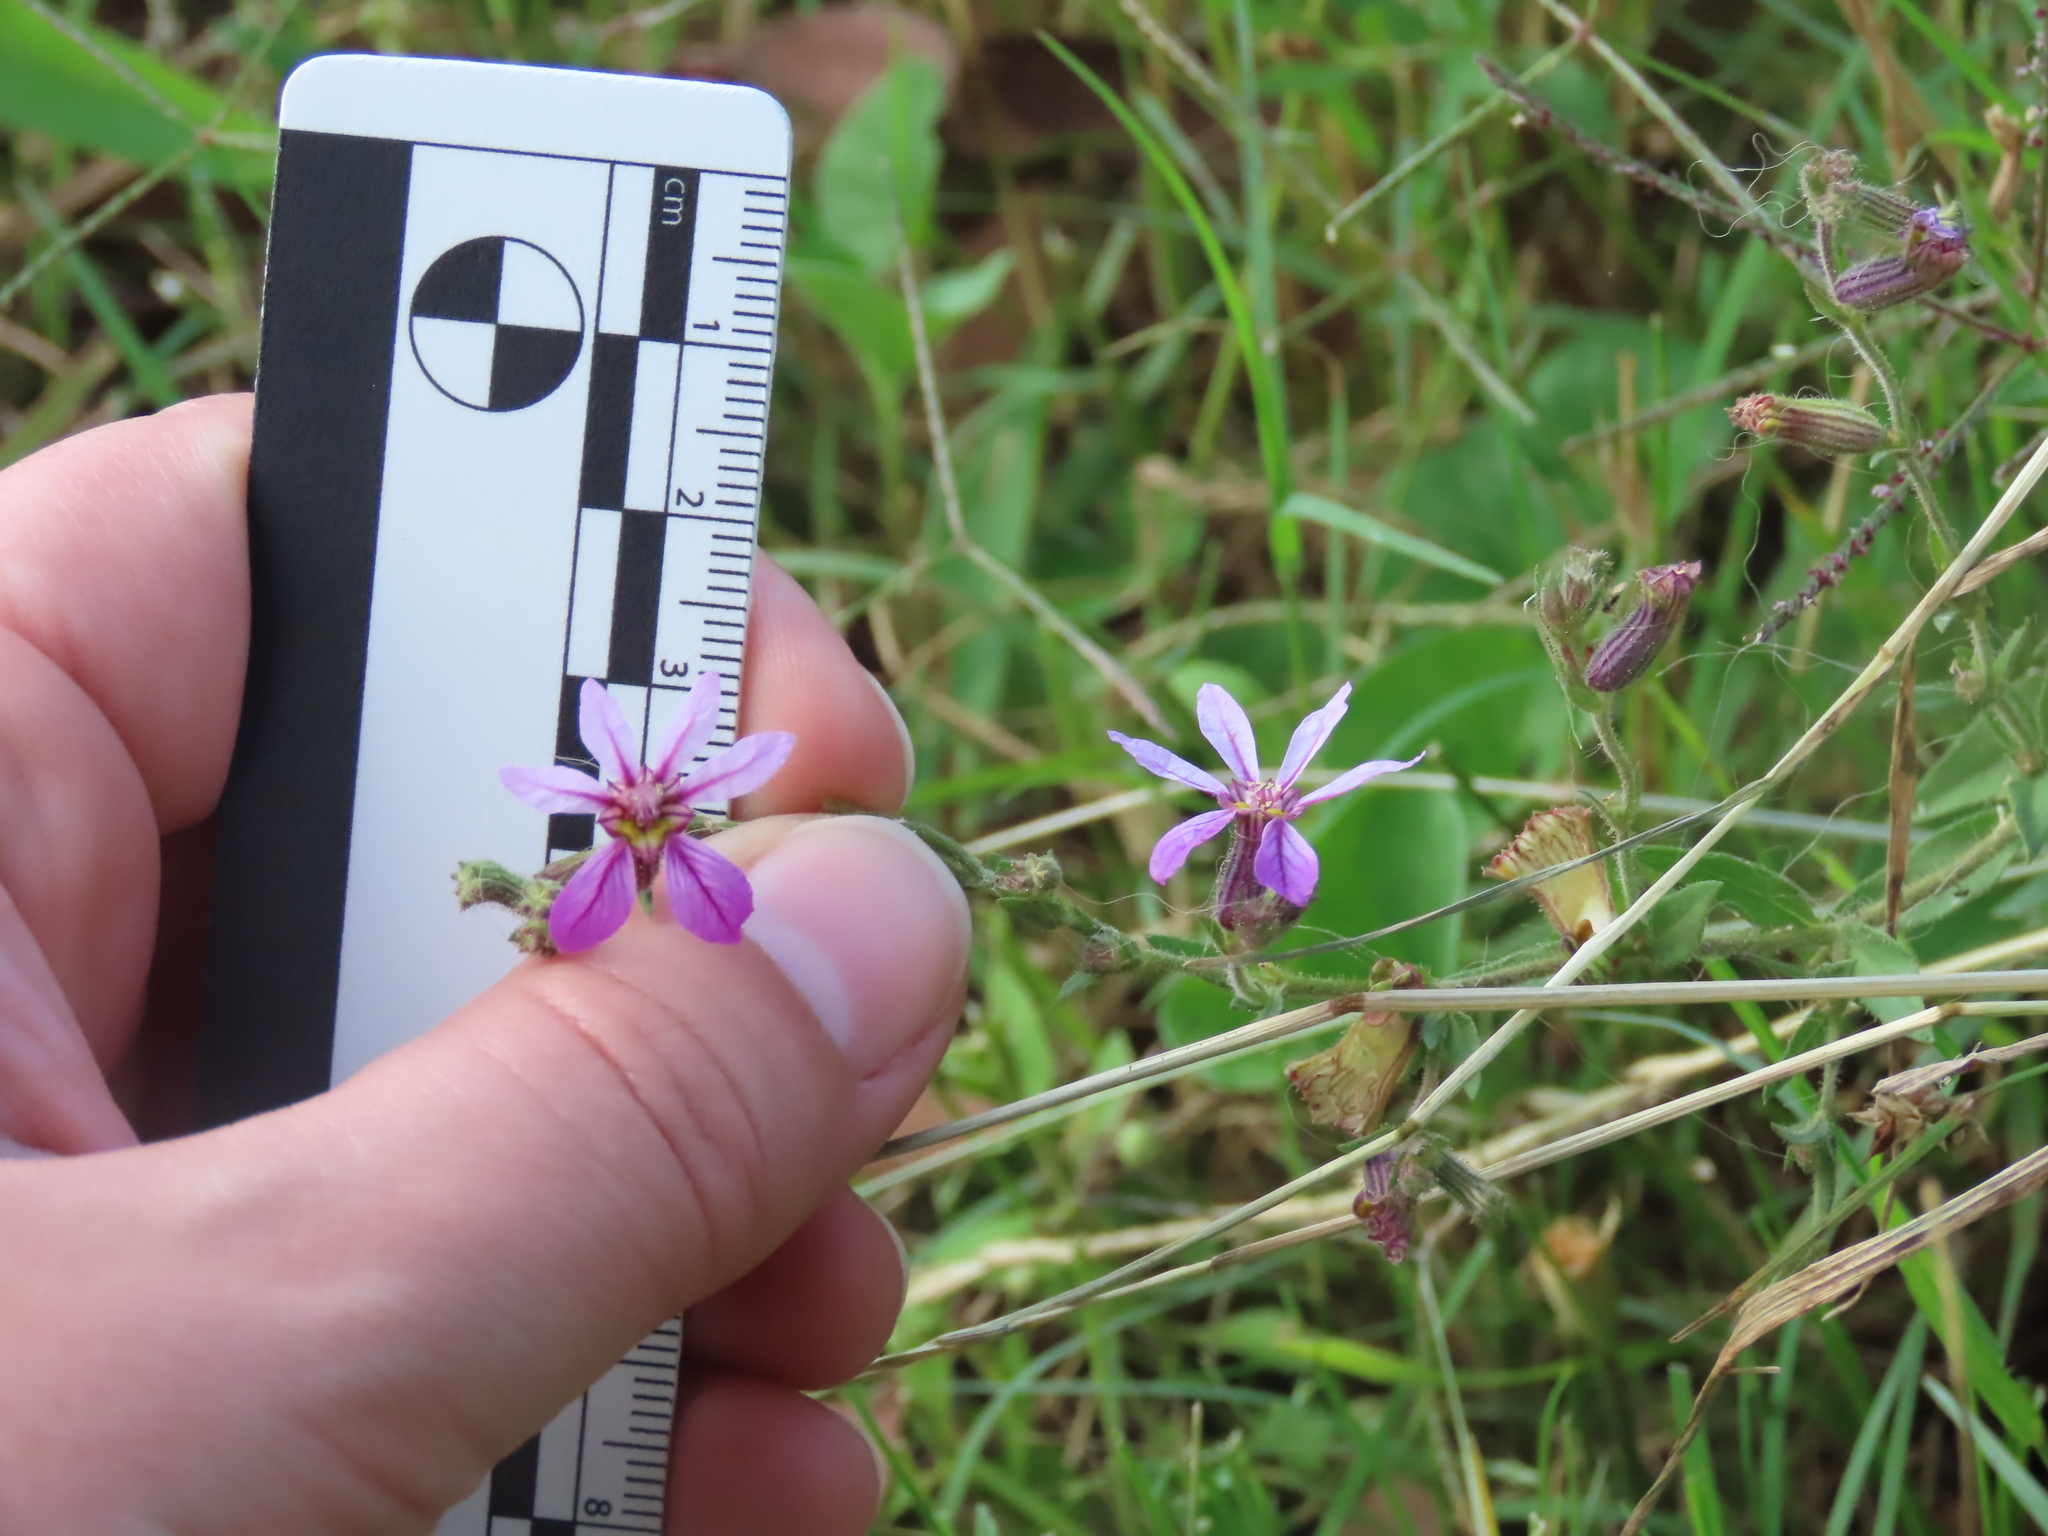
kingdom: Plantae
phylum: Tracheophyta
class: Magnoliopsida
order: Myrtales
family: Lythraceae
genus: Cuphea
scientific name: Cuphea glutinosa
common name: Sticky waxweed
